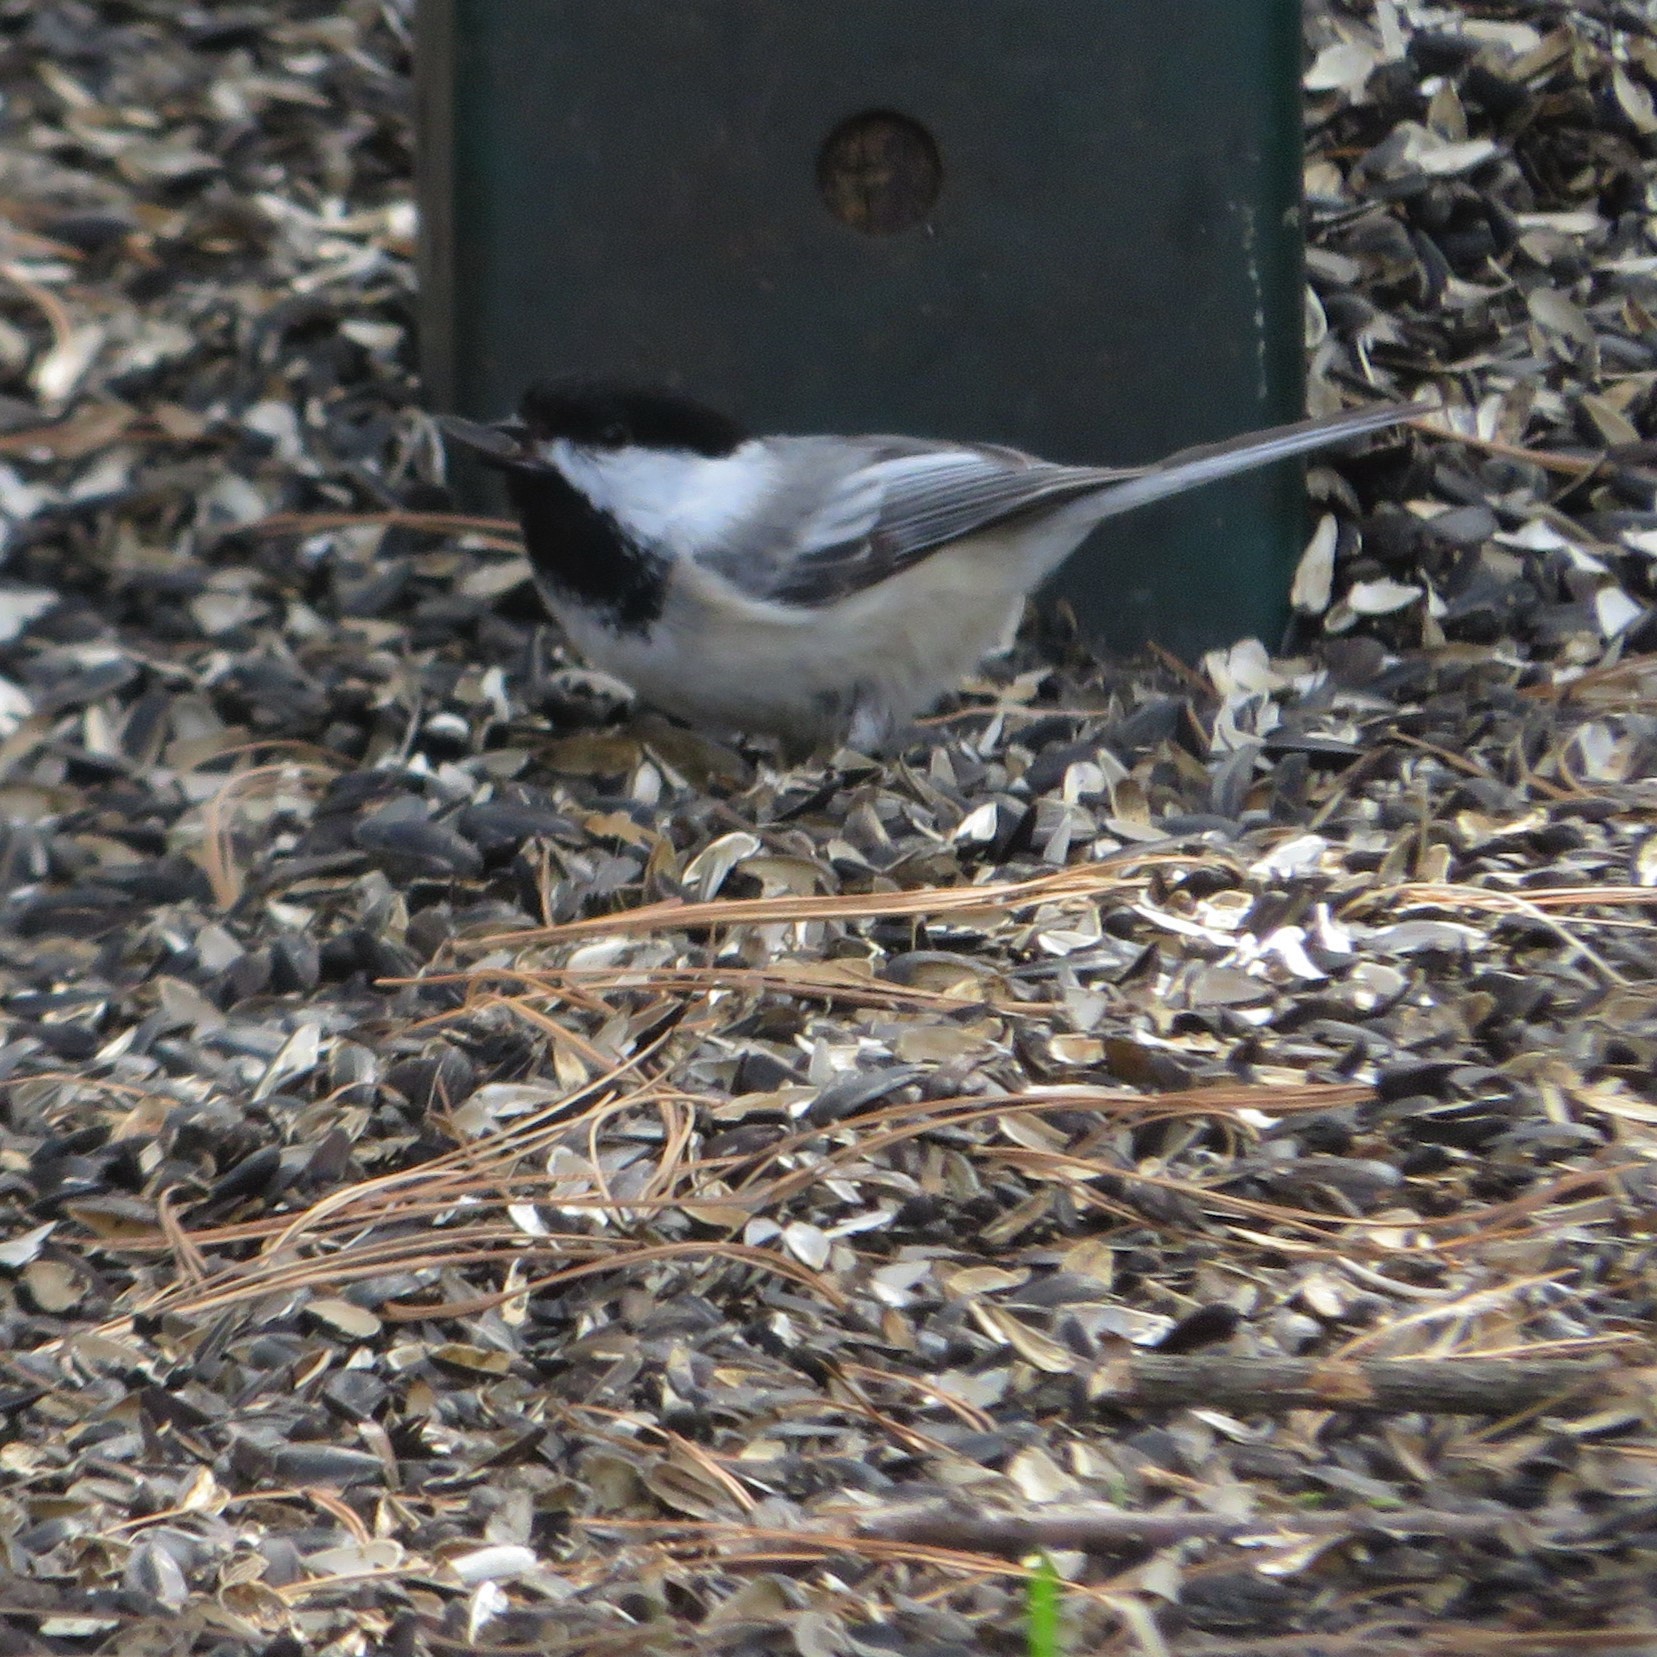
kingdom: Animalia
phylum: Chordata
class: Aves
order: Passeriformes
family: Paridae
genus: Poecile
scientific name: Poecile atricapillus
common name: Black-capped chickadee
